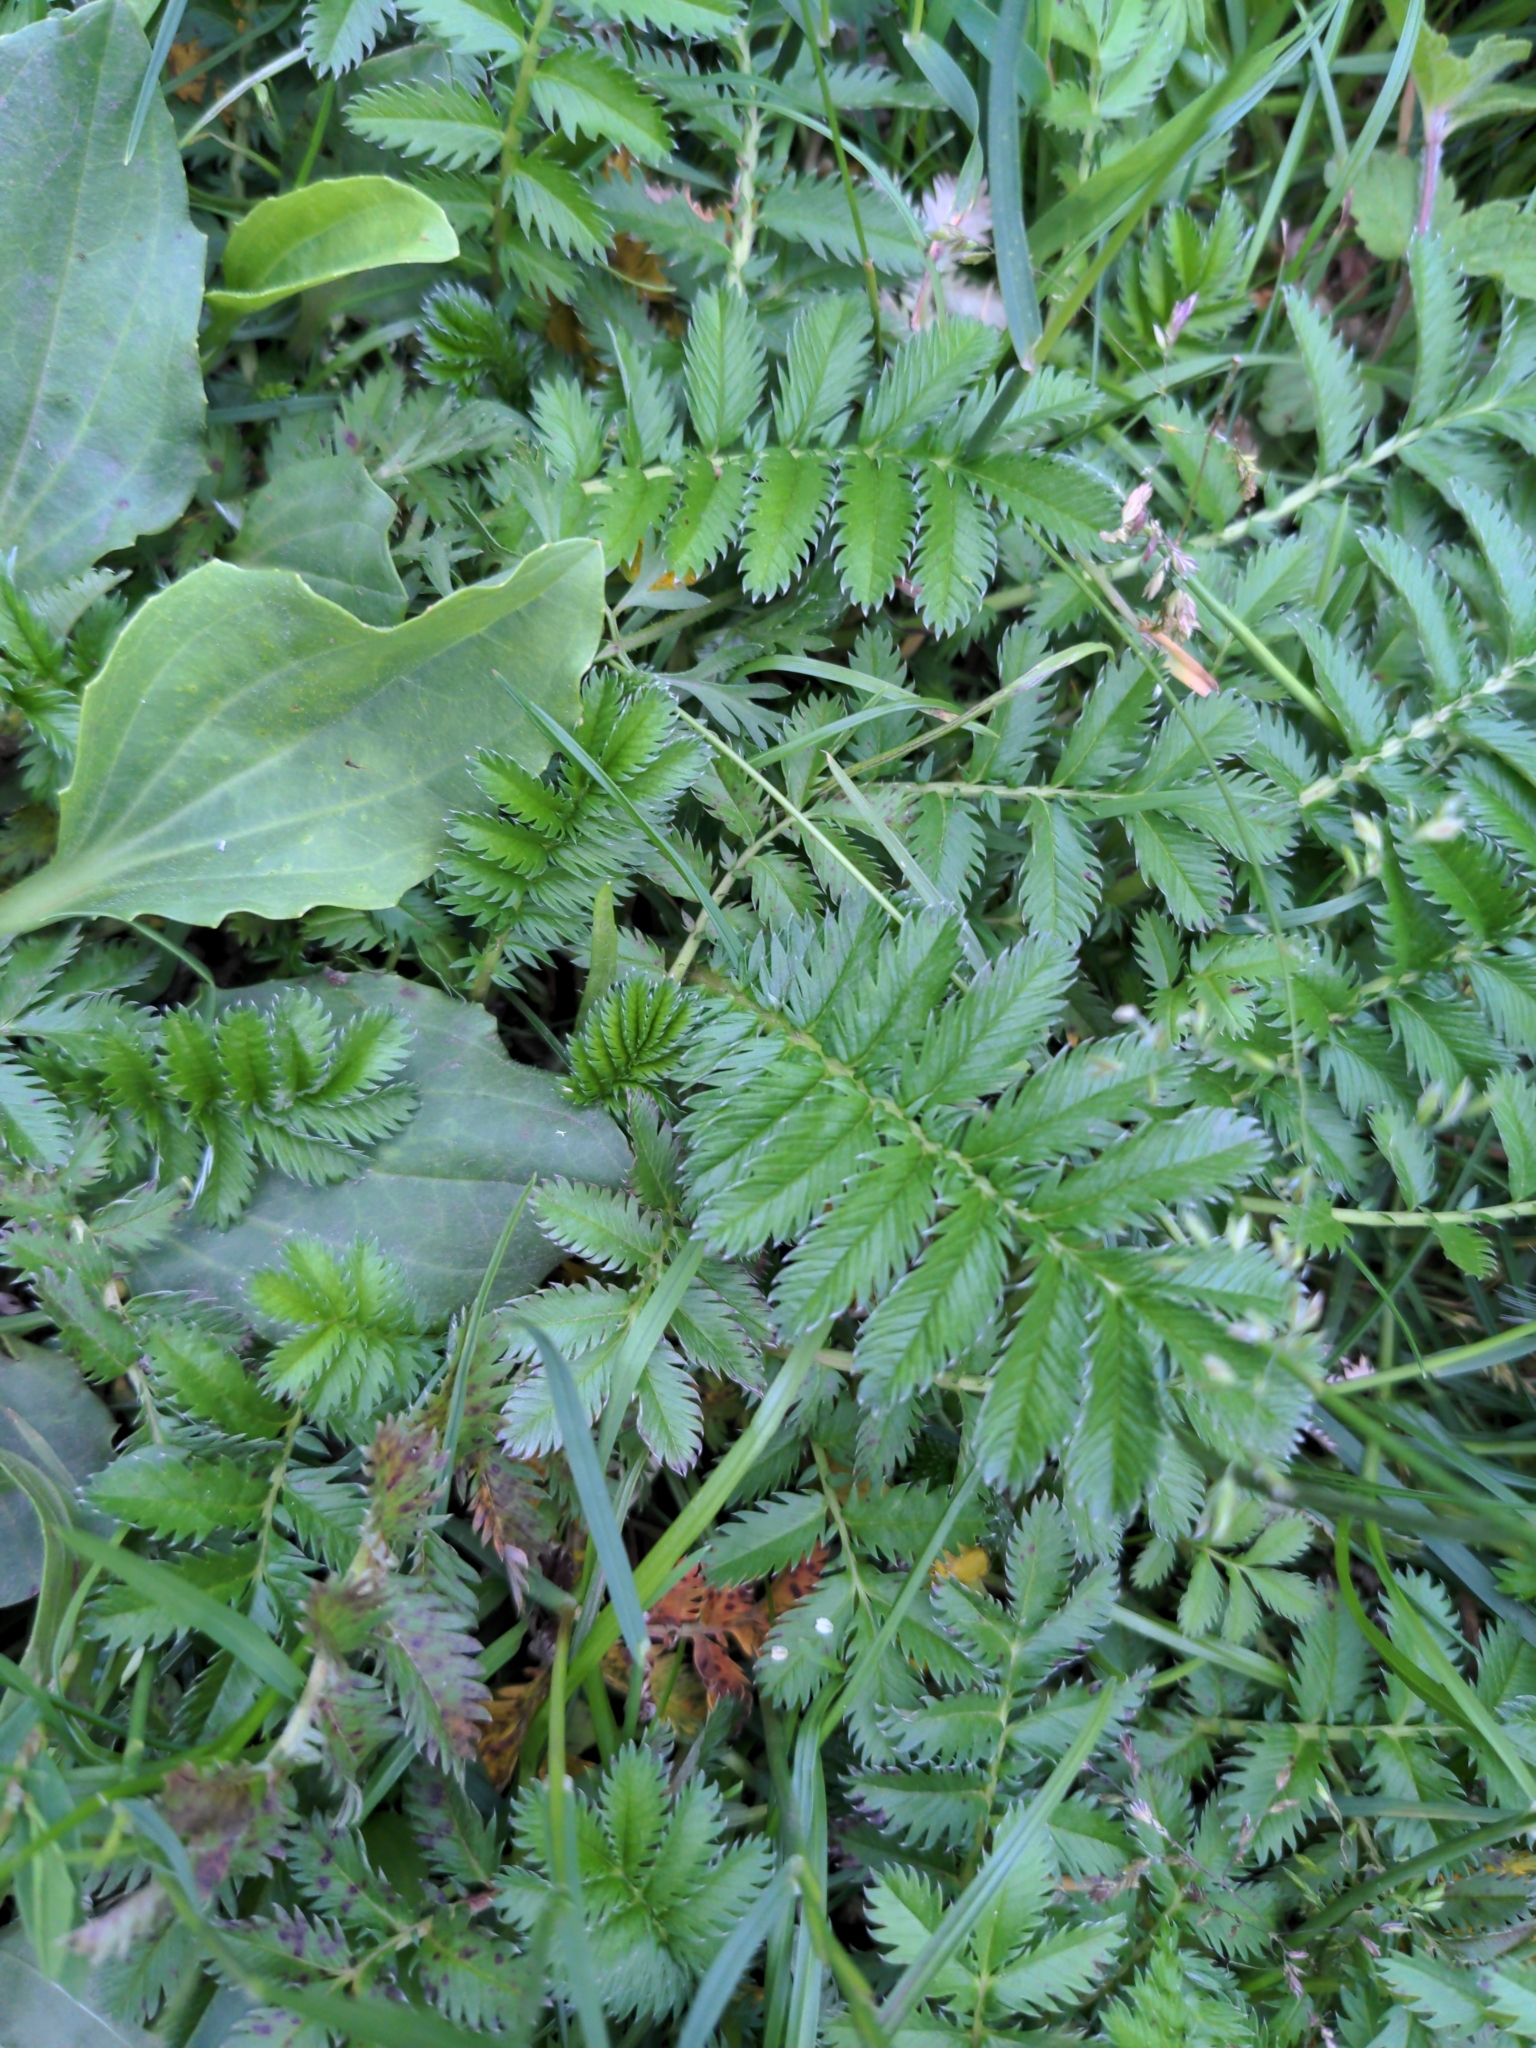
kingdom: Plantae
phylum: Tracheophyta
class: Magnoliopsida
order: Rosales
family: Rosaceae
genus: Argentina
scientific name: Argentina anserina
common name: Common silverweed
